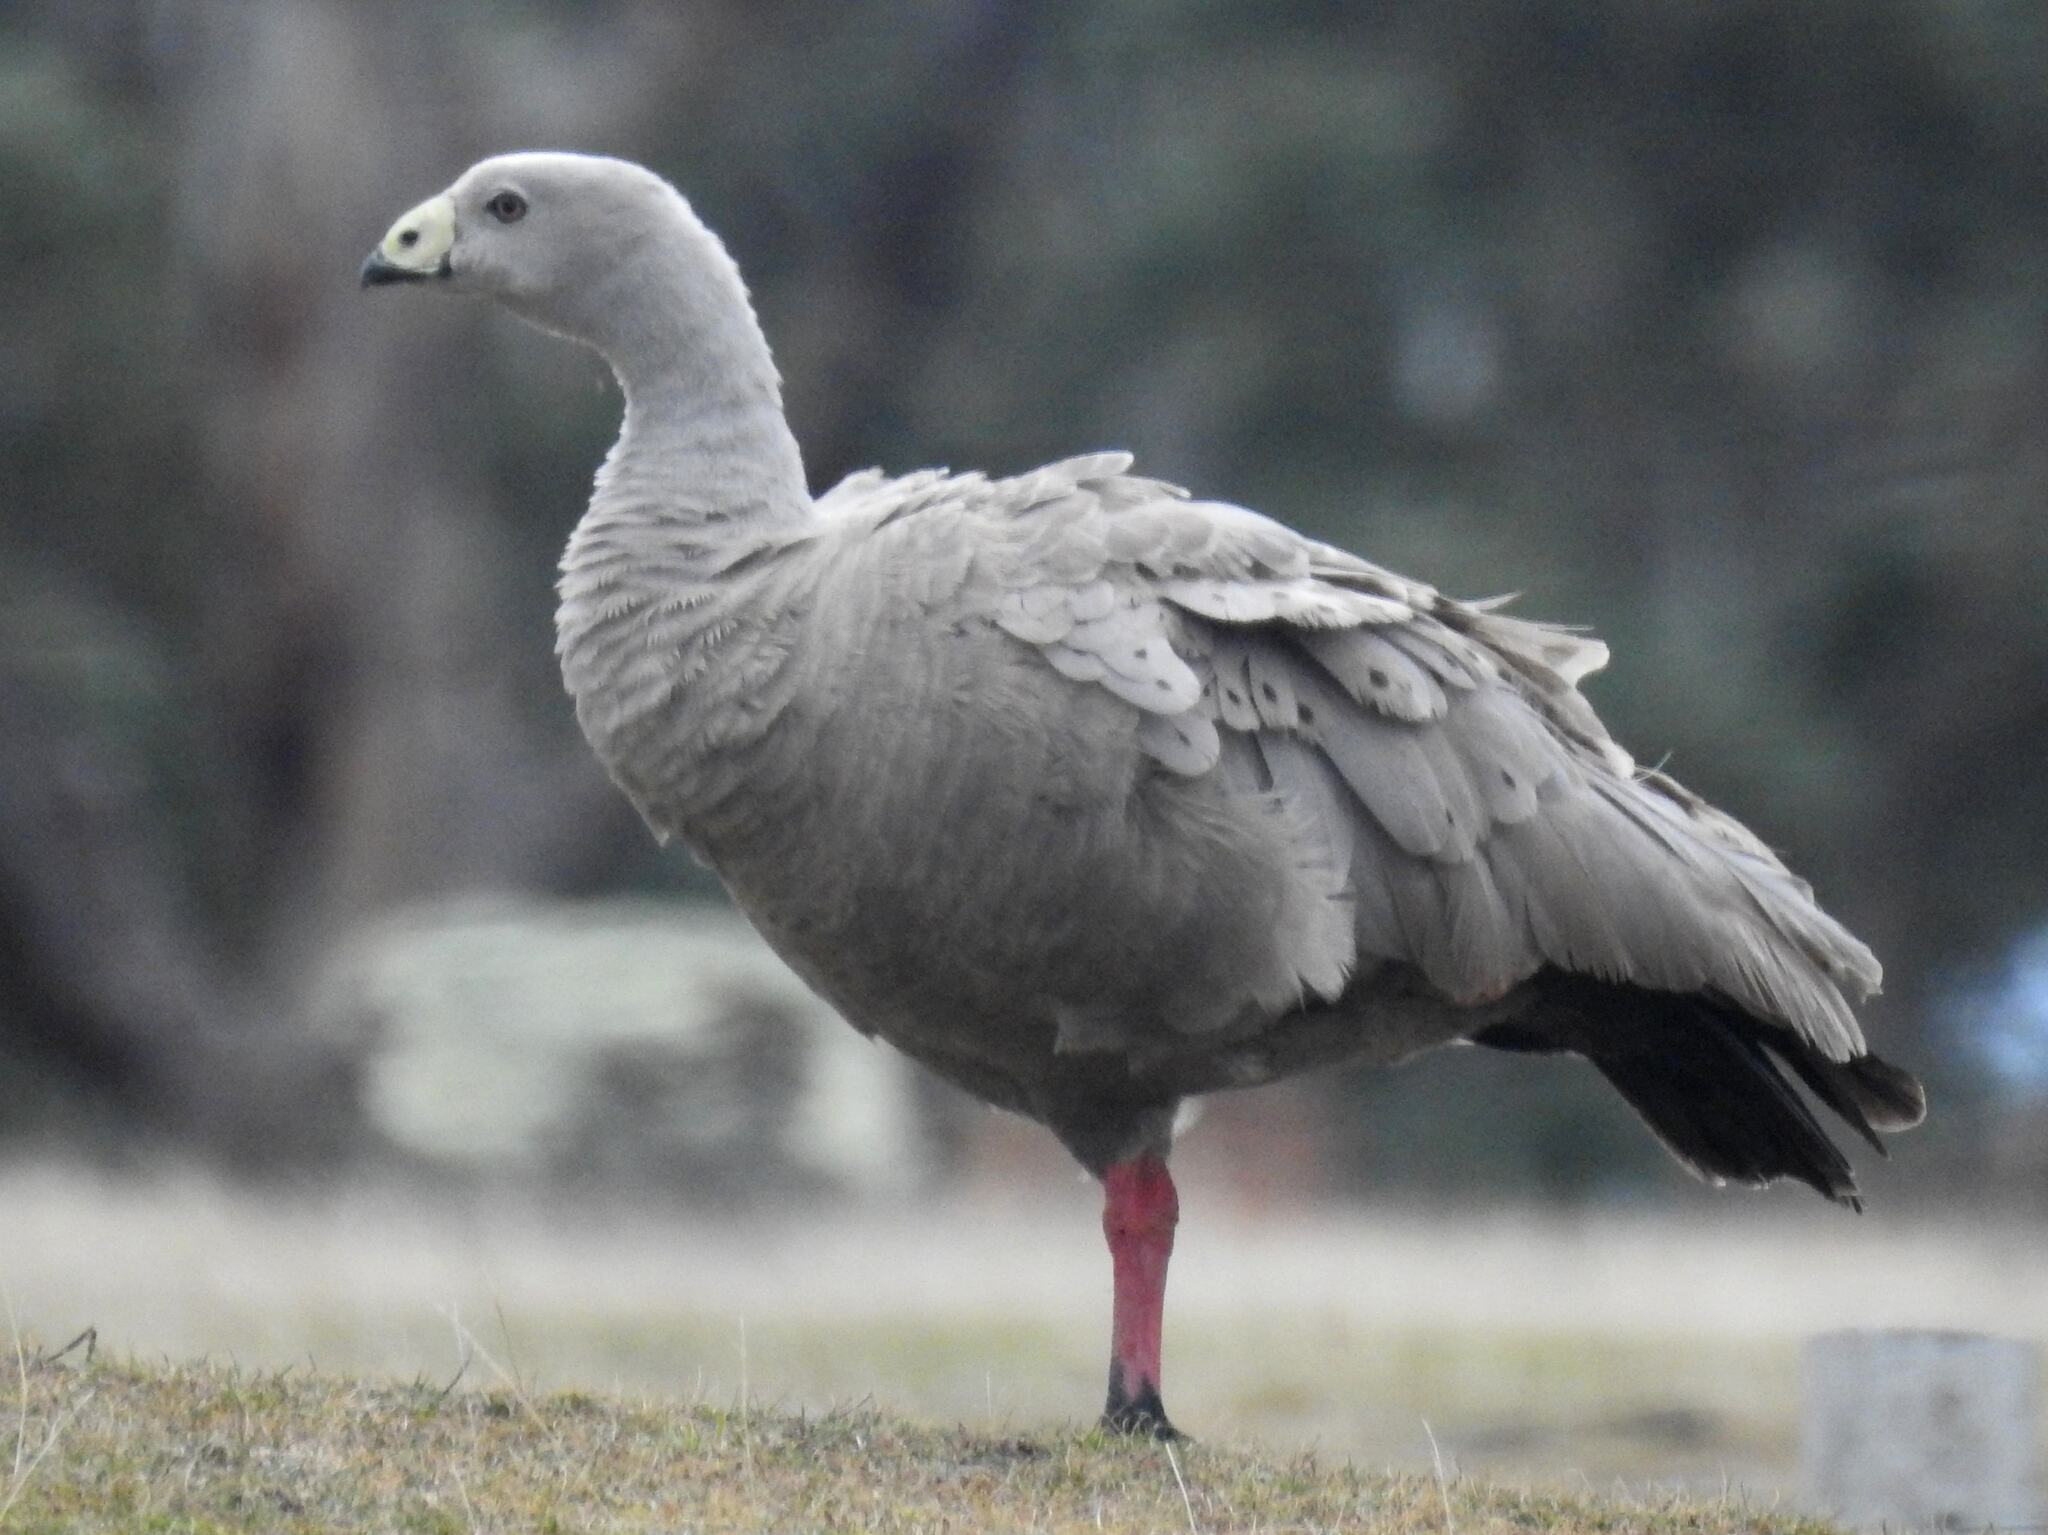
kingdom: Animalia
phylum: Chordata
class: Aves
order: Anseriformes
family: Anatidae
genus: Cereopsis
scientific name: Cereopsis novaehollandiae
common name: Cape barren goose
